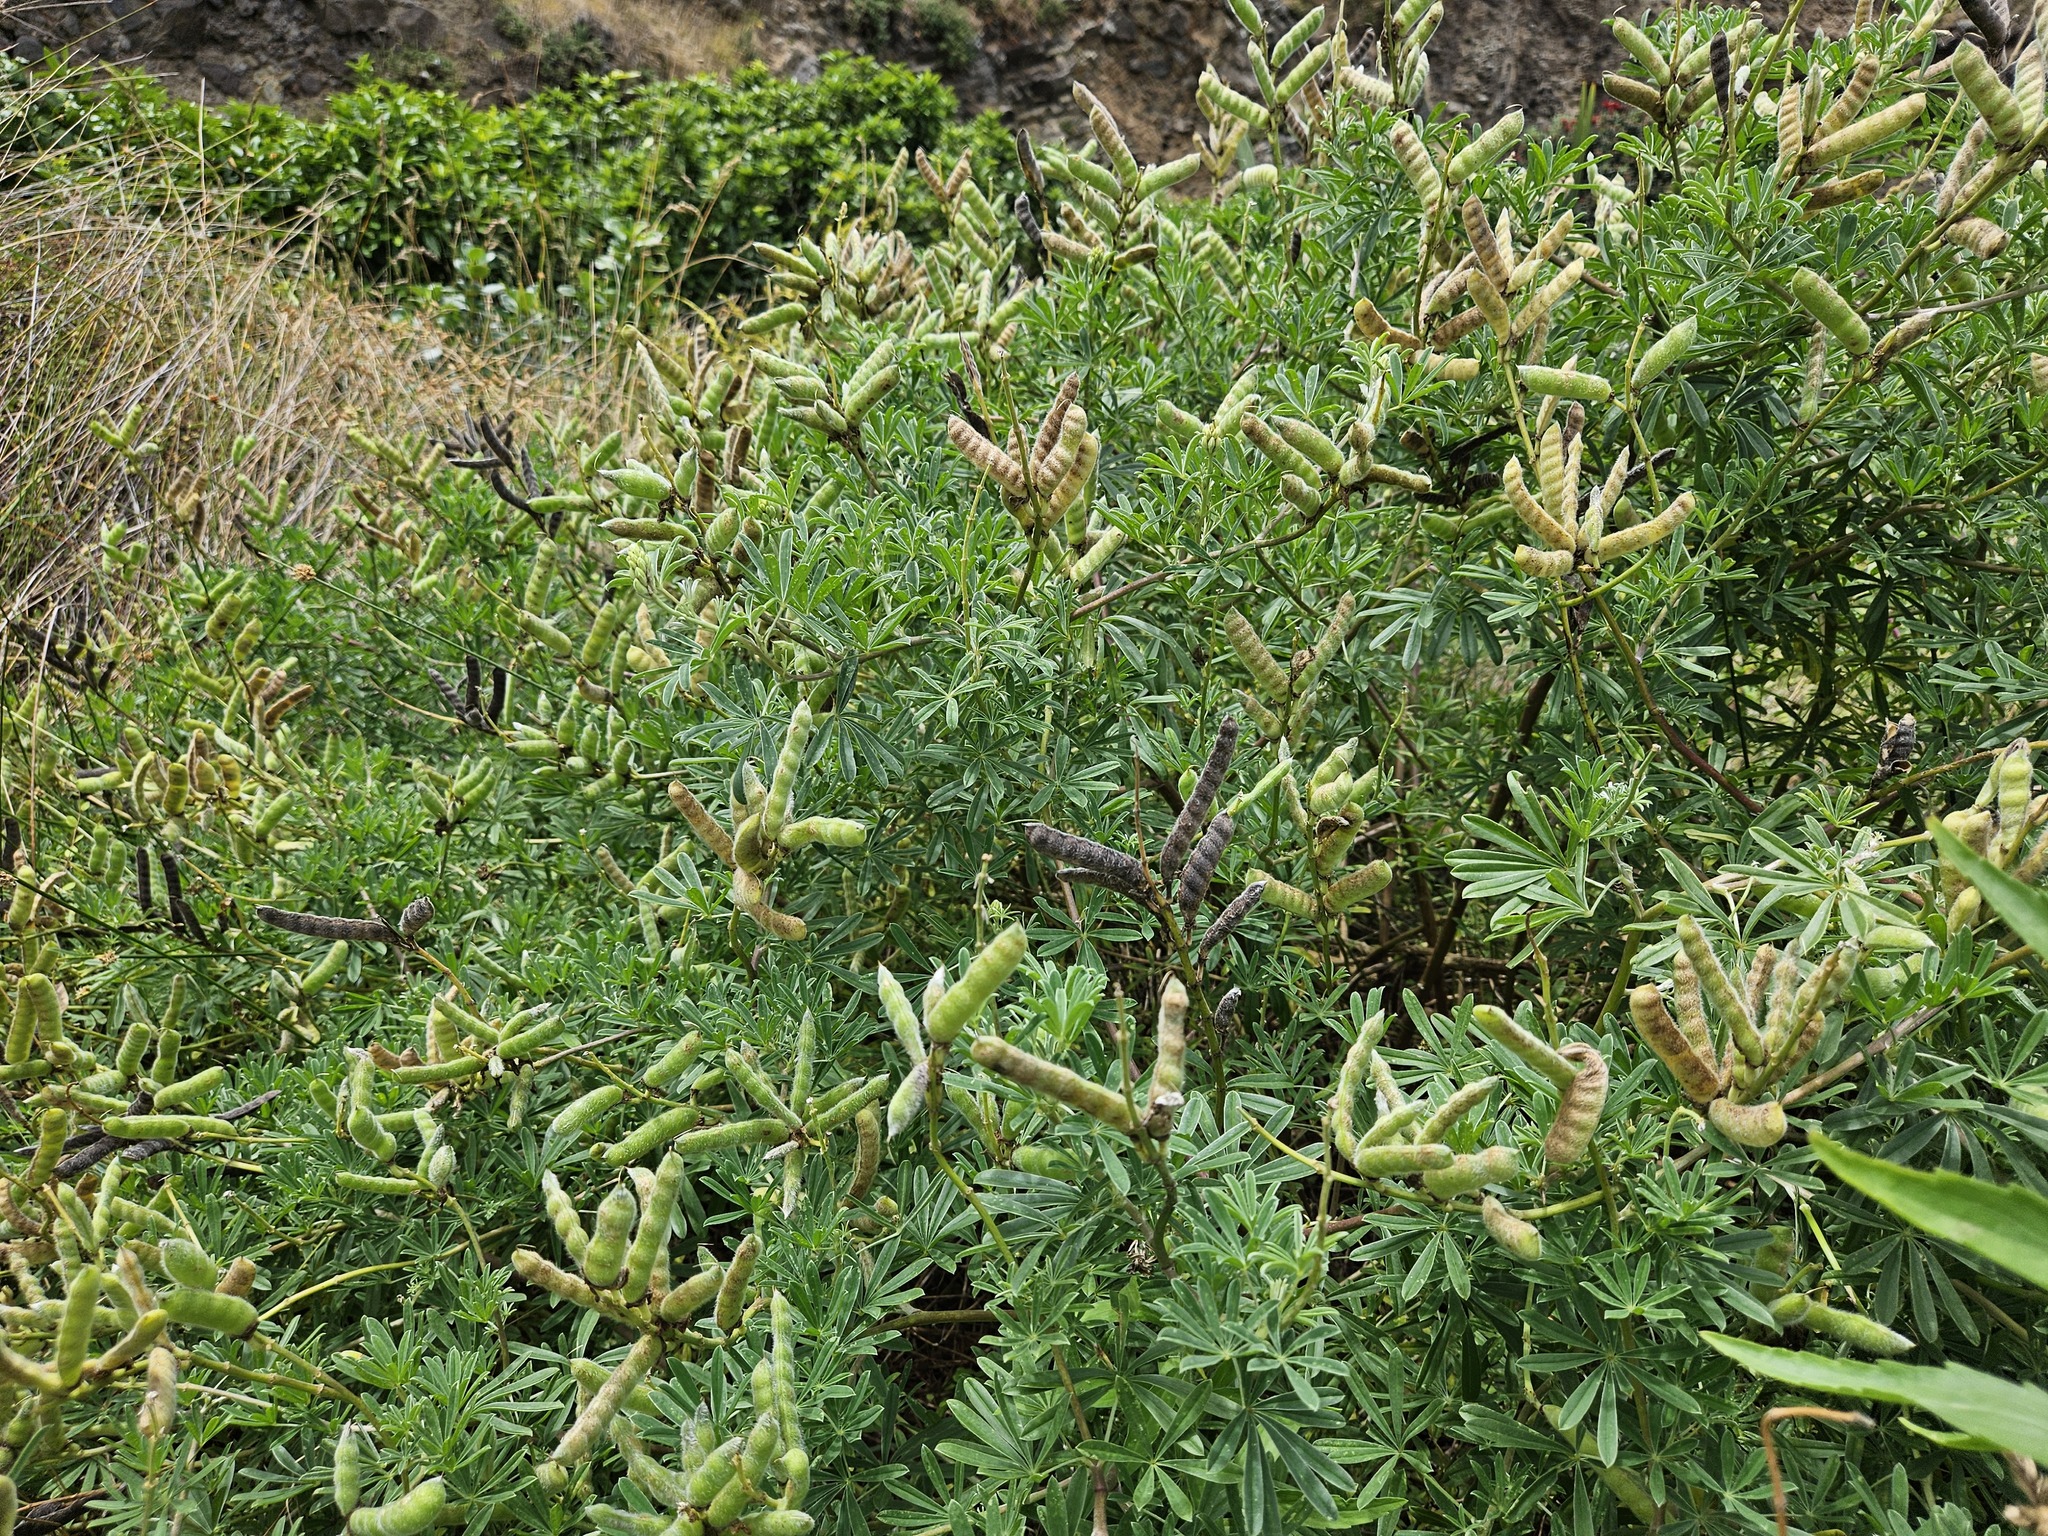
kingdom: Plantae
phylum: Tracheophyta
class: Magnoliopsida
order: Fabales
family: Fabaceae
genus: Lupinus
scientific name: Lupinus arboreus
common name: Yellow bush lupine
